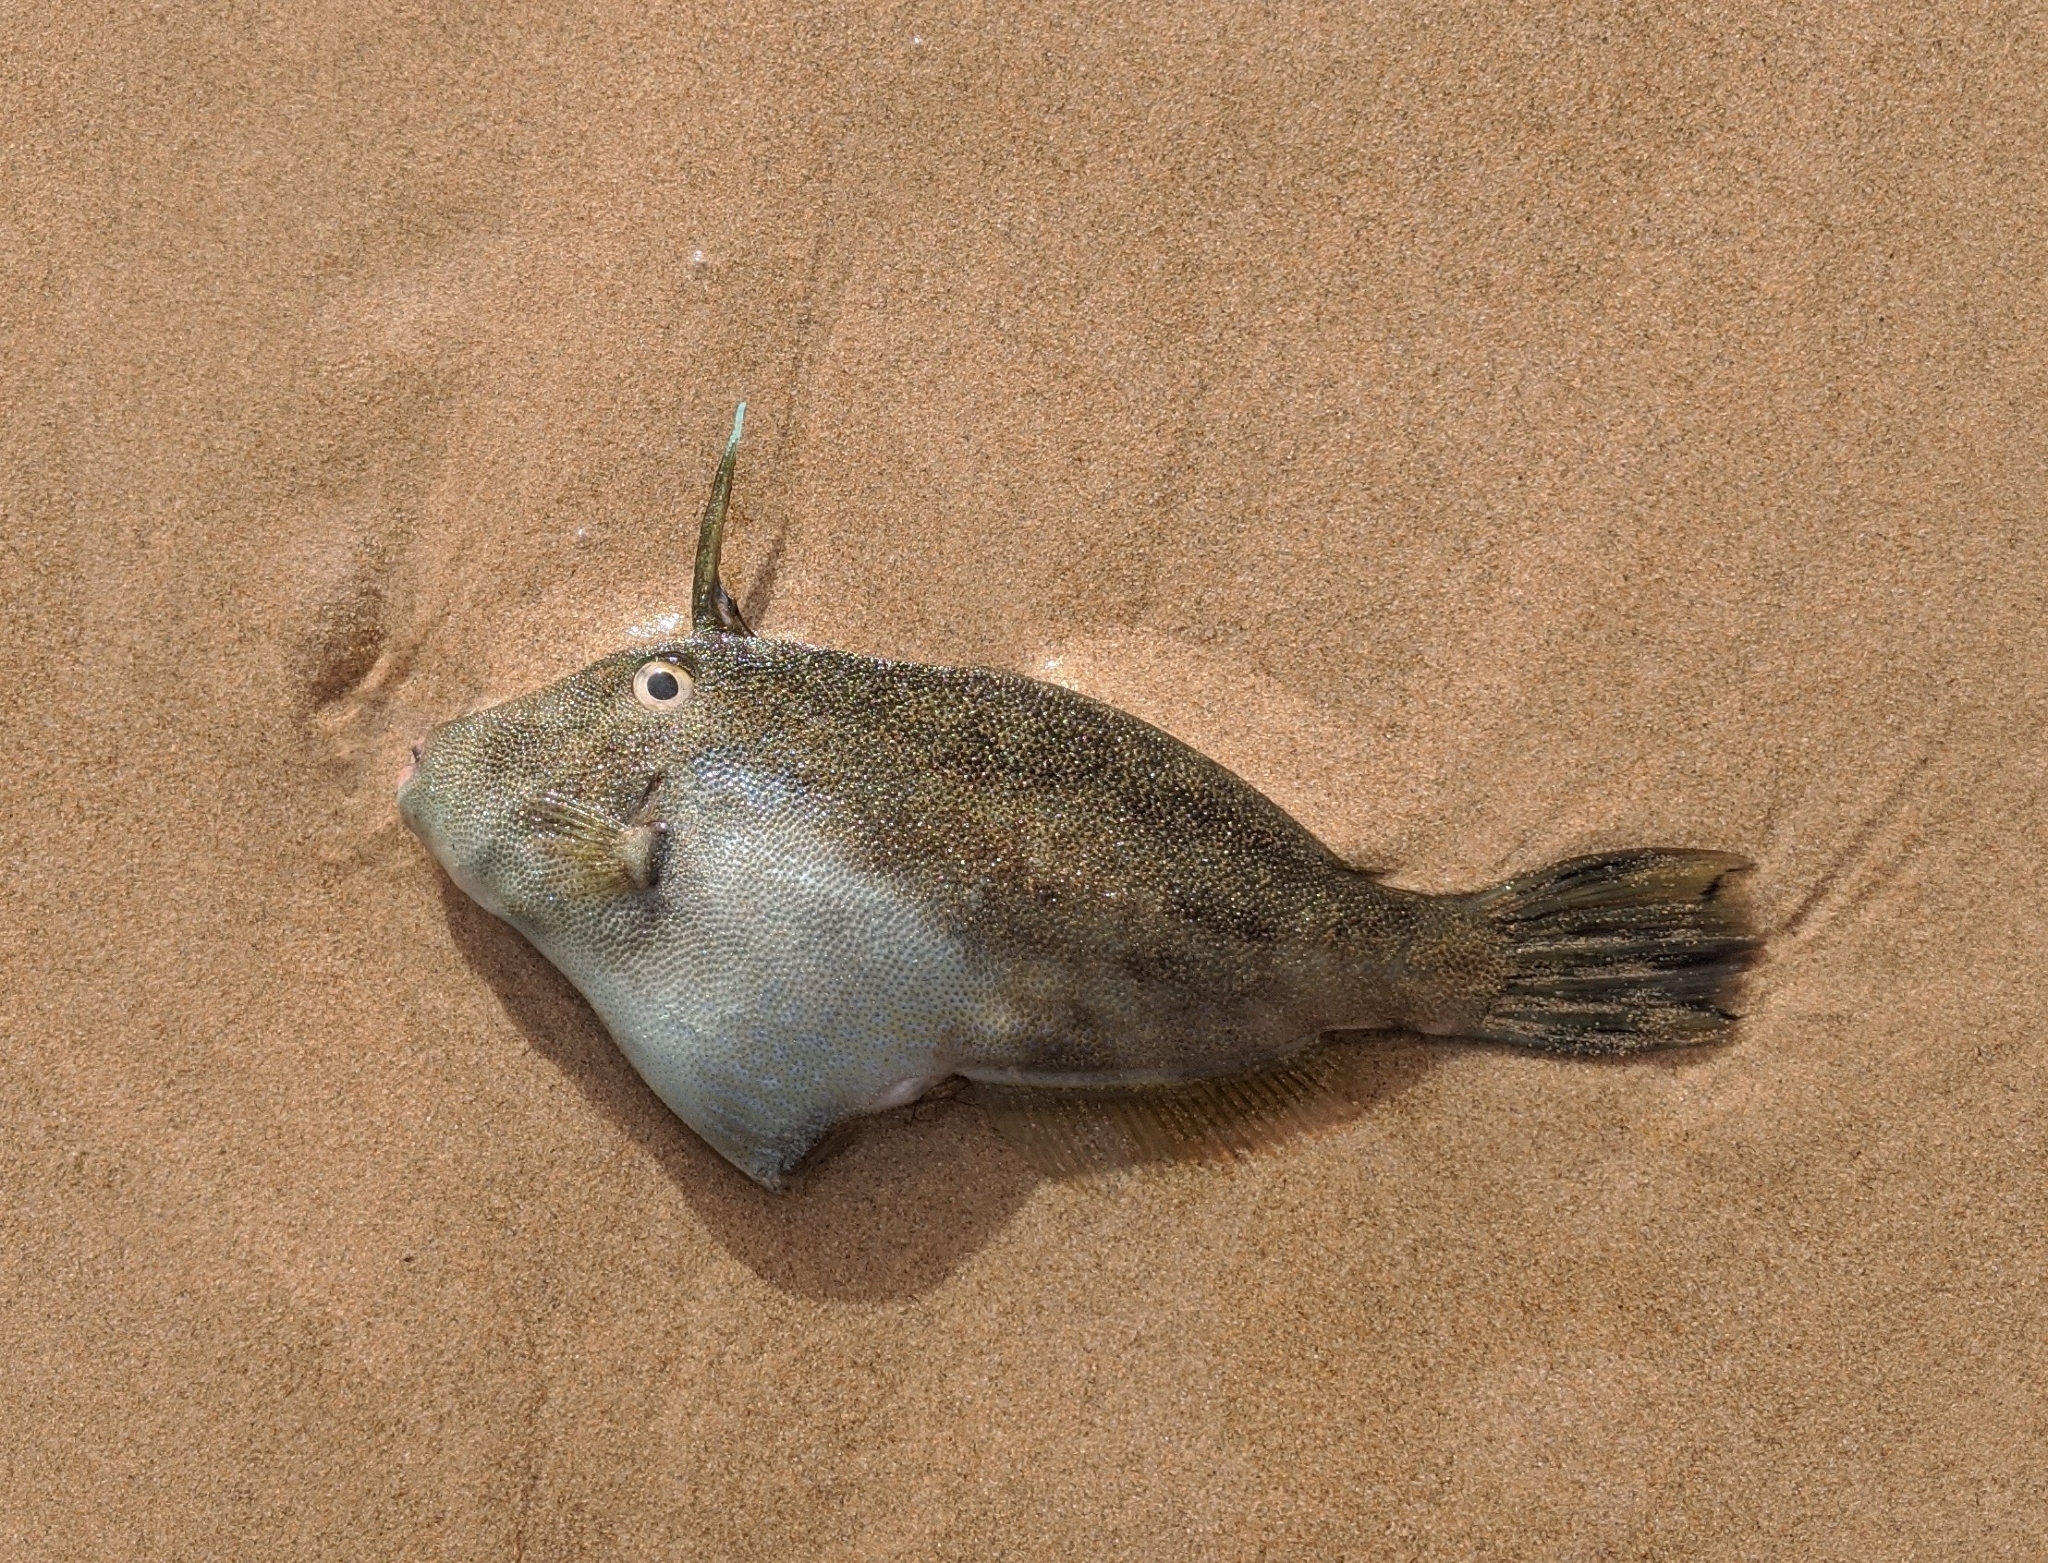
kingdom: Animalia
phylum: Chordata
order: Tetraodontiformes
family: Monacanthidae
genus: Scobinichthys
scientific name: Scobinichthys granulatus
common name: Rough leatherjacket
